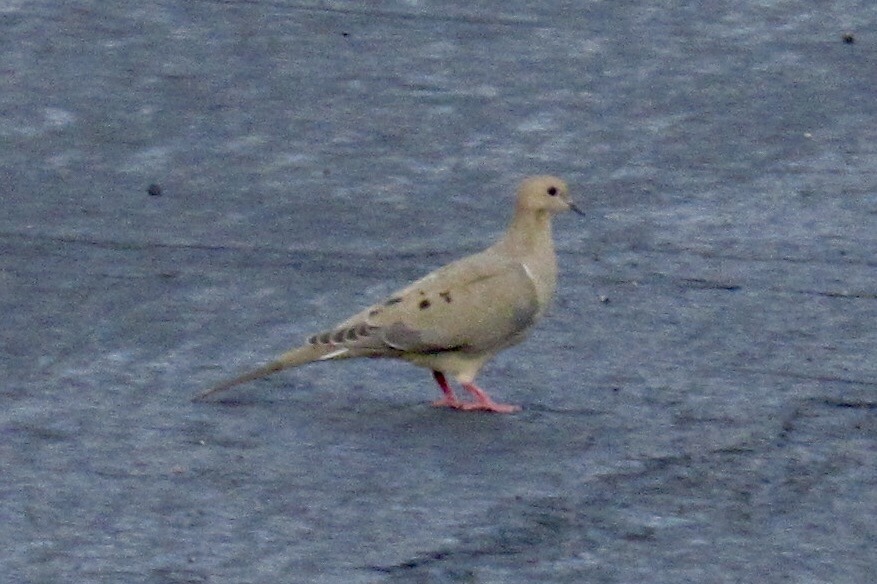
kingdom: Animalia
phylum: Chordata
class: Aves
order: Columbiformes
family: Columbidae
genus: Zenaida
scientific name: Zenaida macroura
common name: Mourning dove
